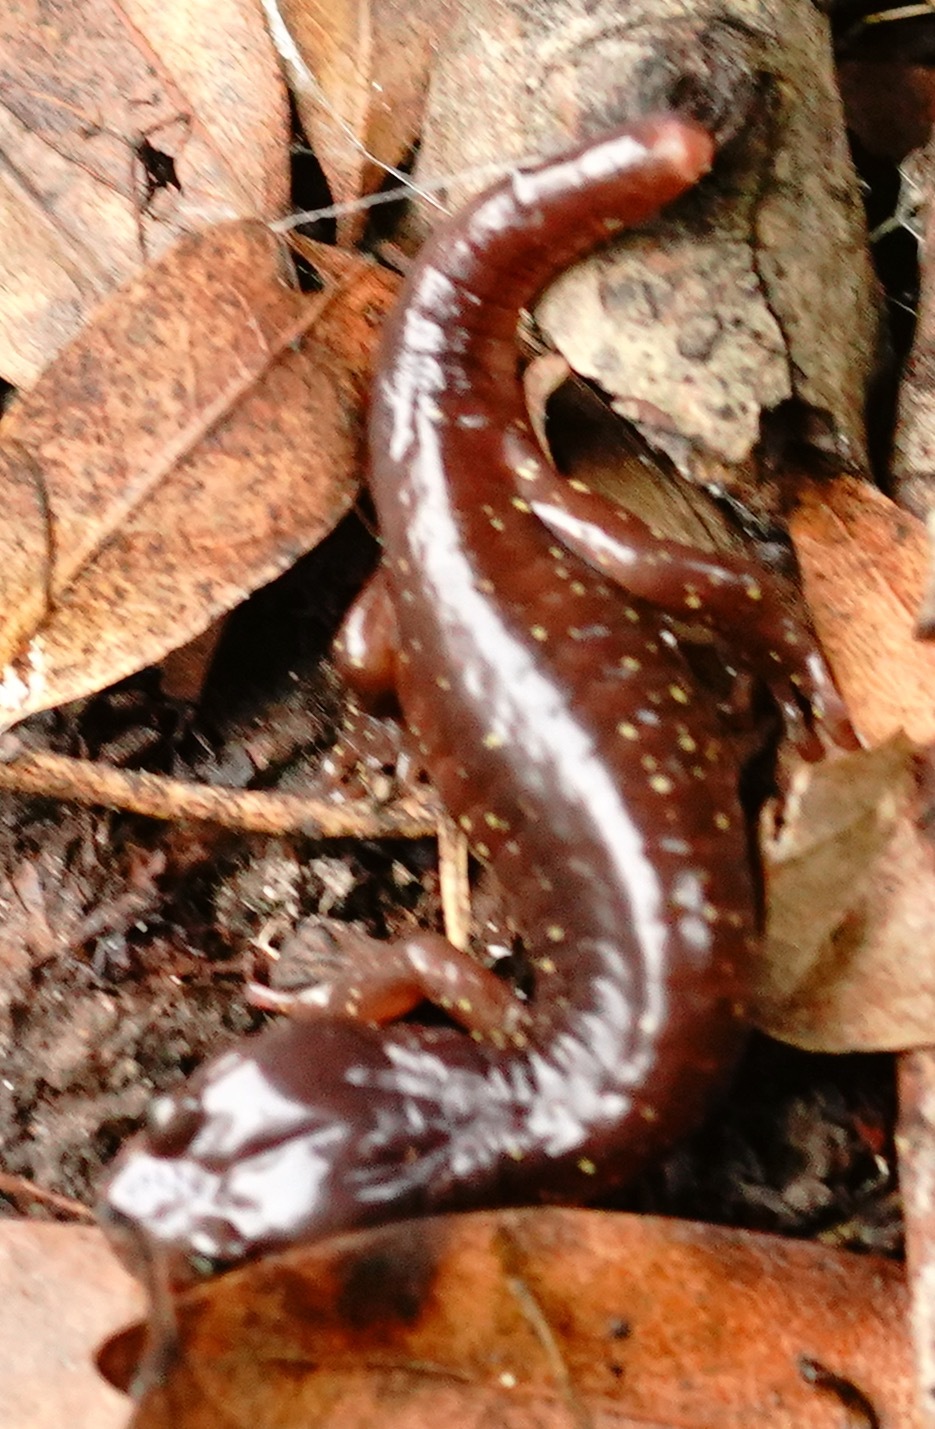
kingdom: Animalia
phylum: Chordata
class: Amphibia
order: Caudata
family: Plethodontidae
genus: Aneides
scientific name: Aneides lugubris
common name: Arboreal salamander
